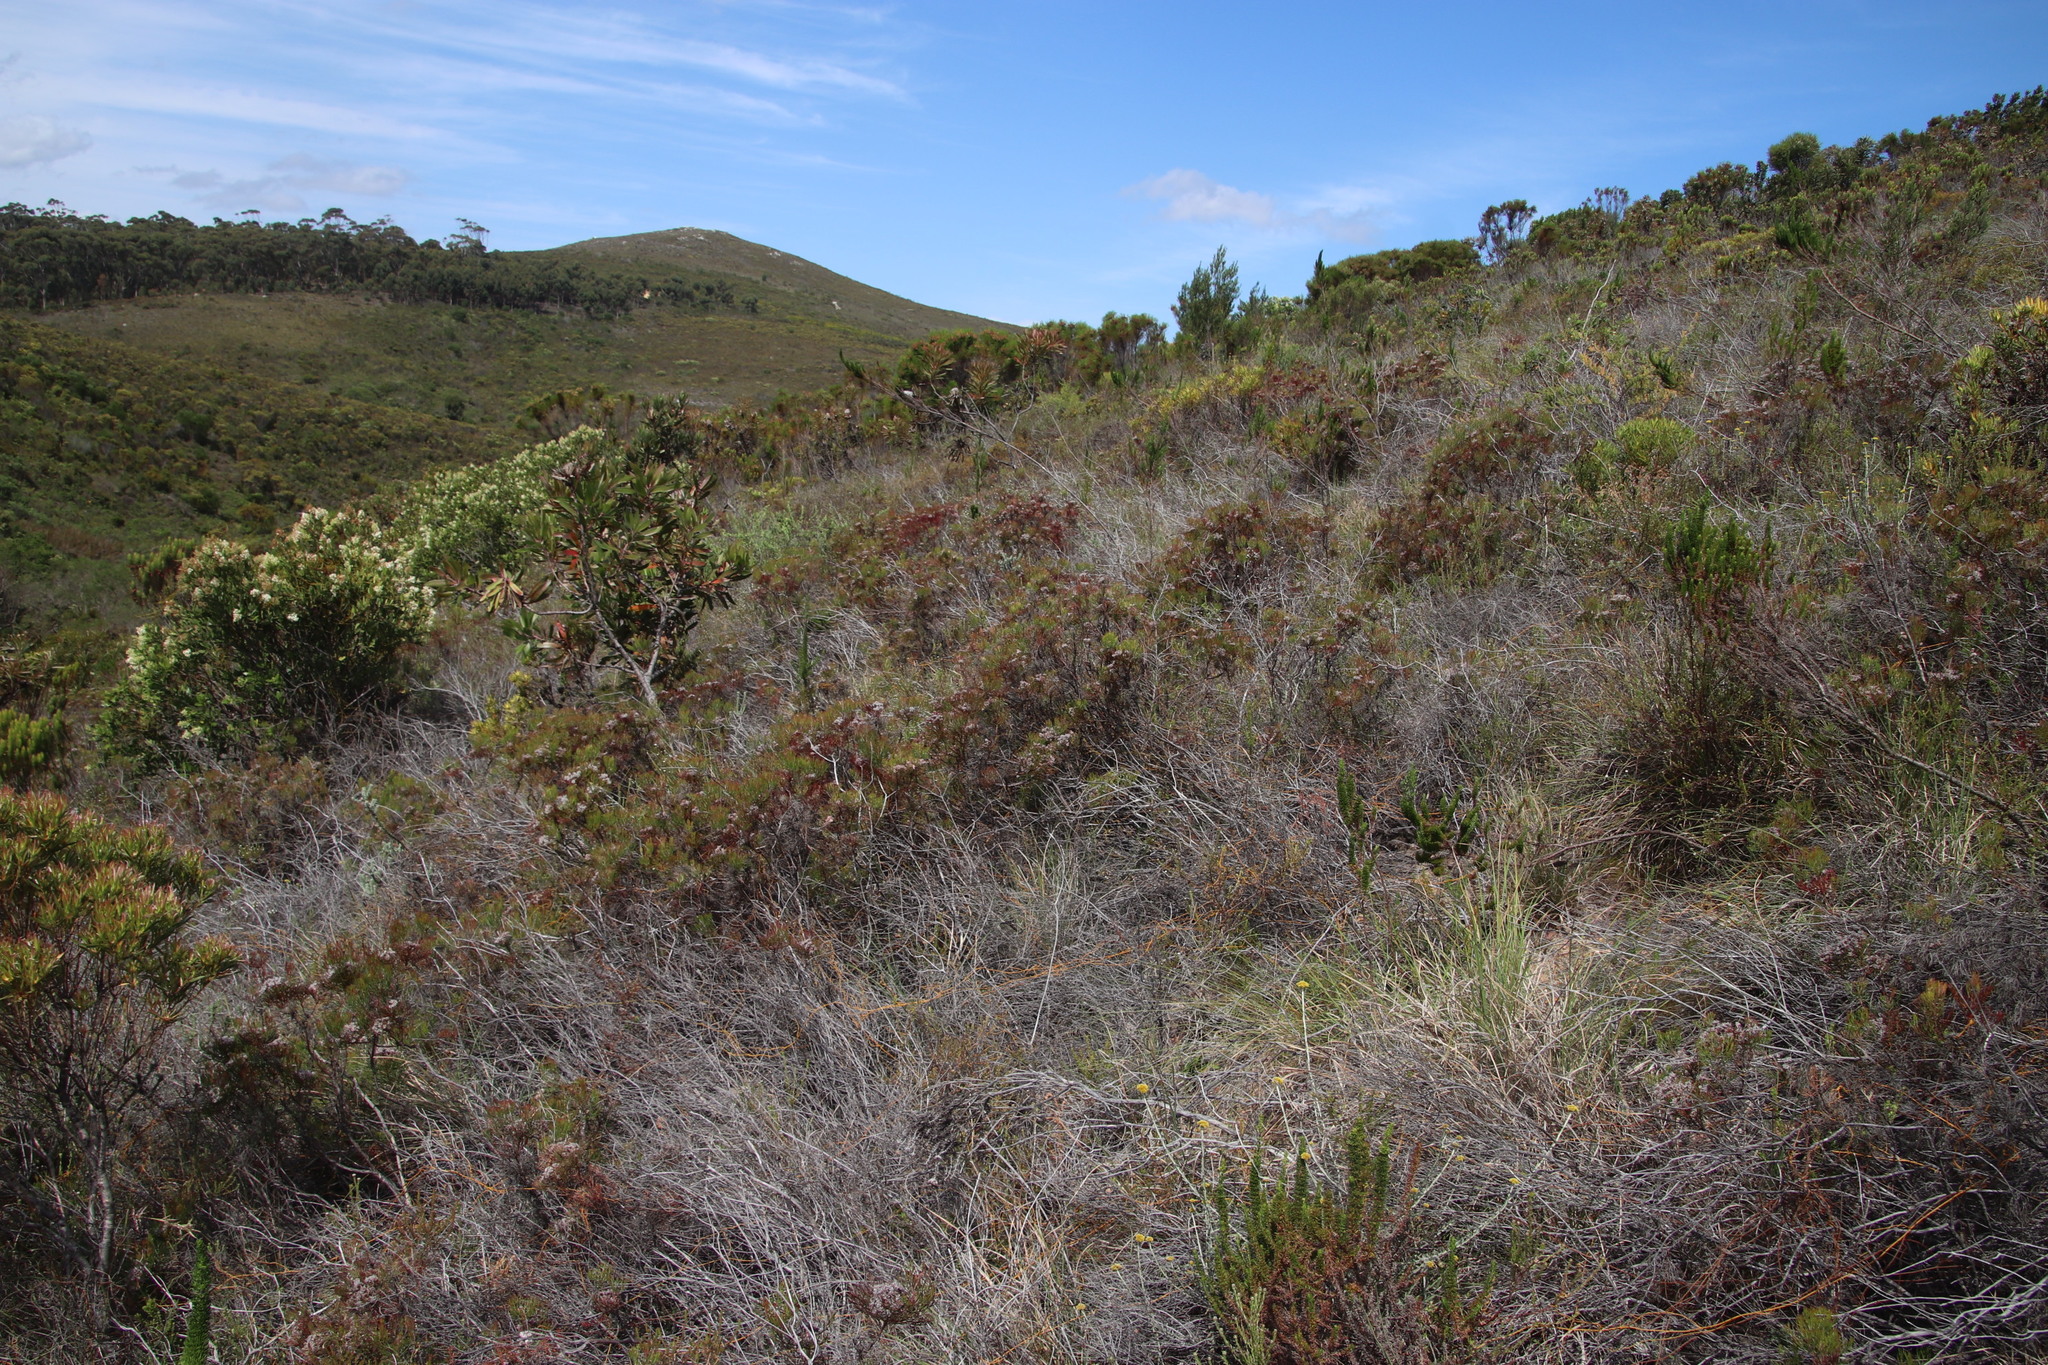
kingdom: Plantae
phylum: Tracheophyta
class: Magnoliopsida
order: Proteales
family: Proteaceae
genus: Serruria
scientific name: Serruria fasciflora
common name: Common pin spiderhead
